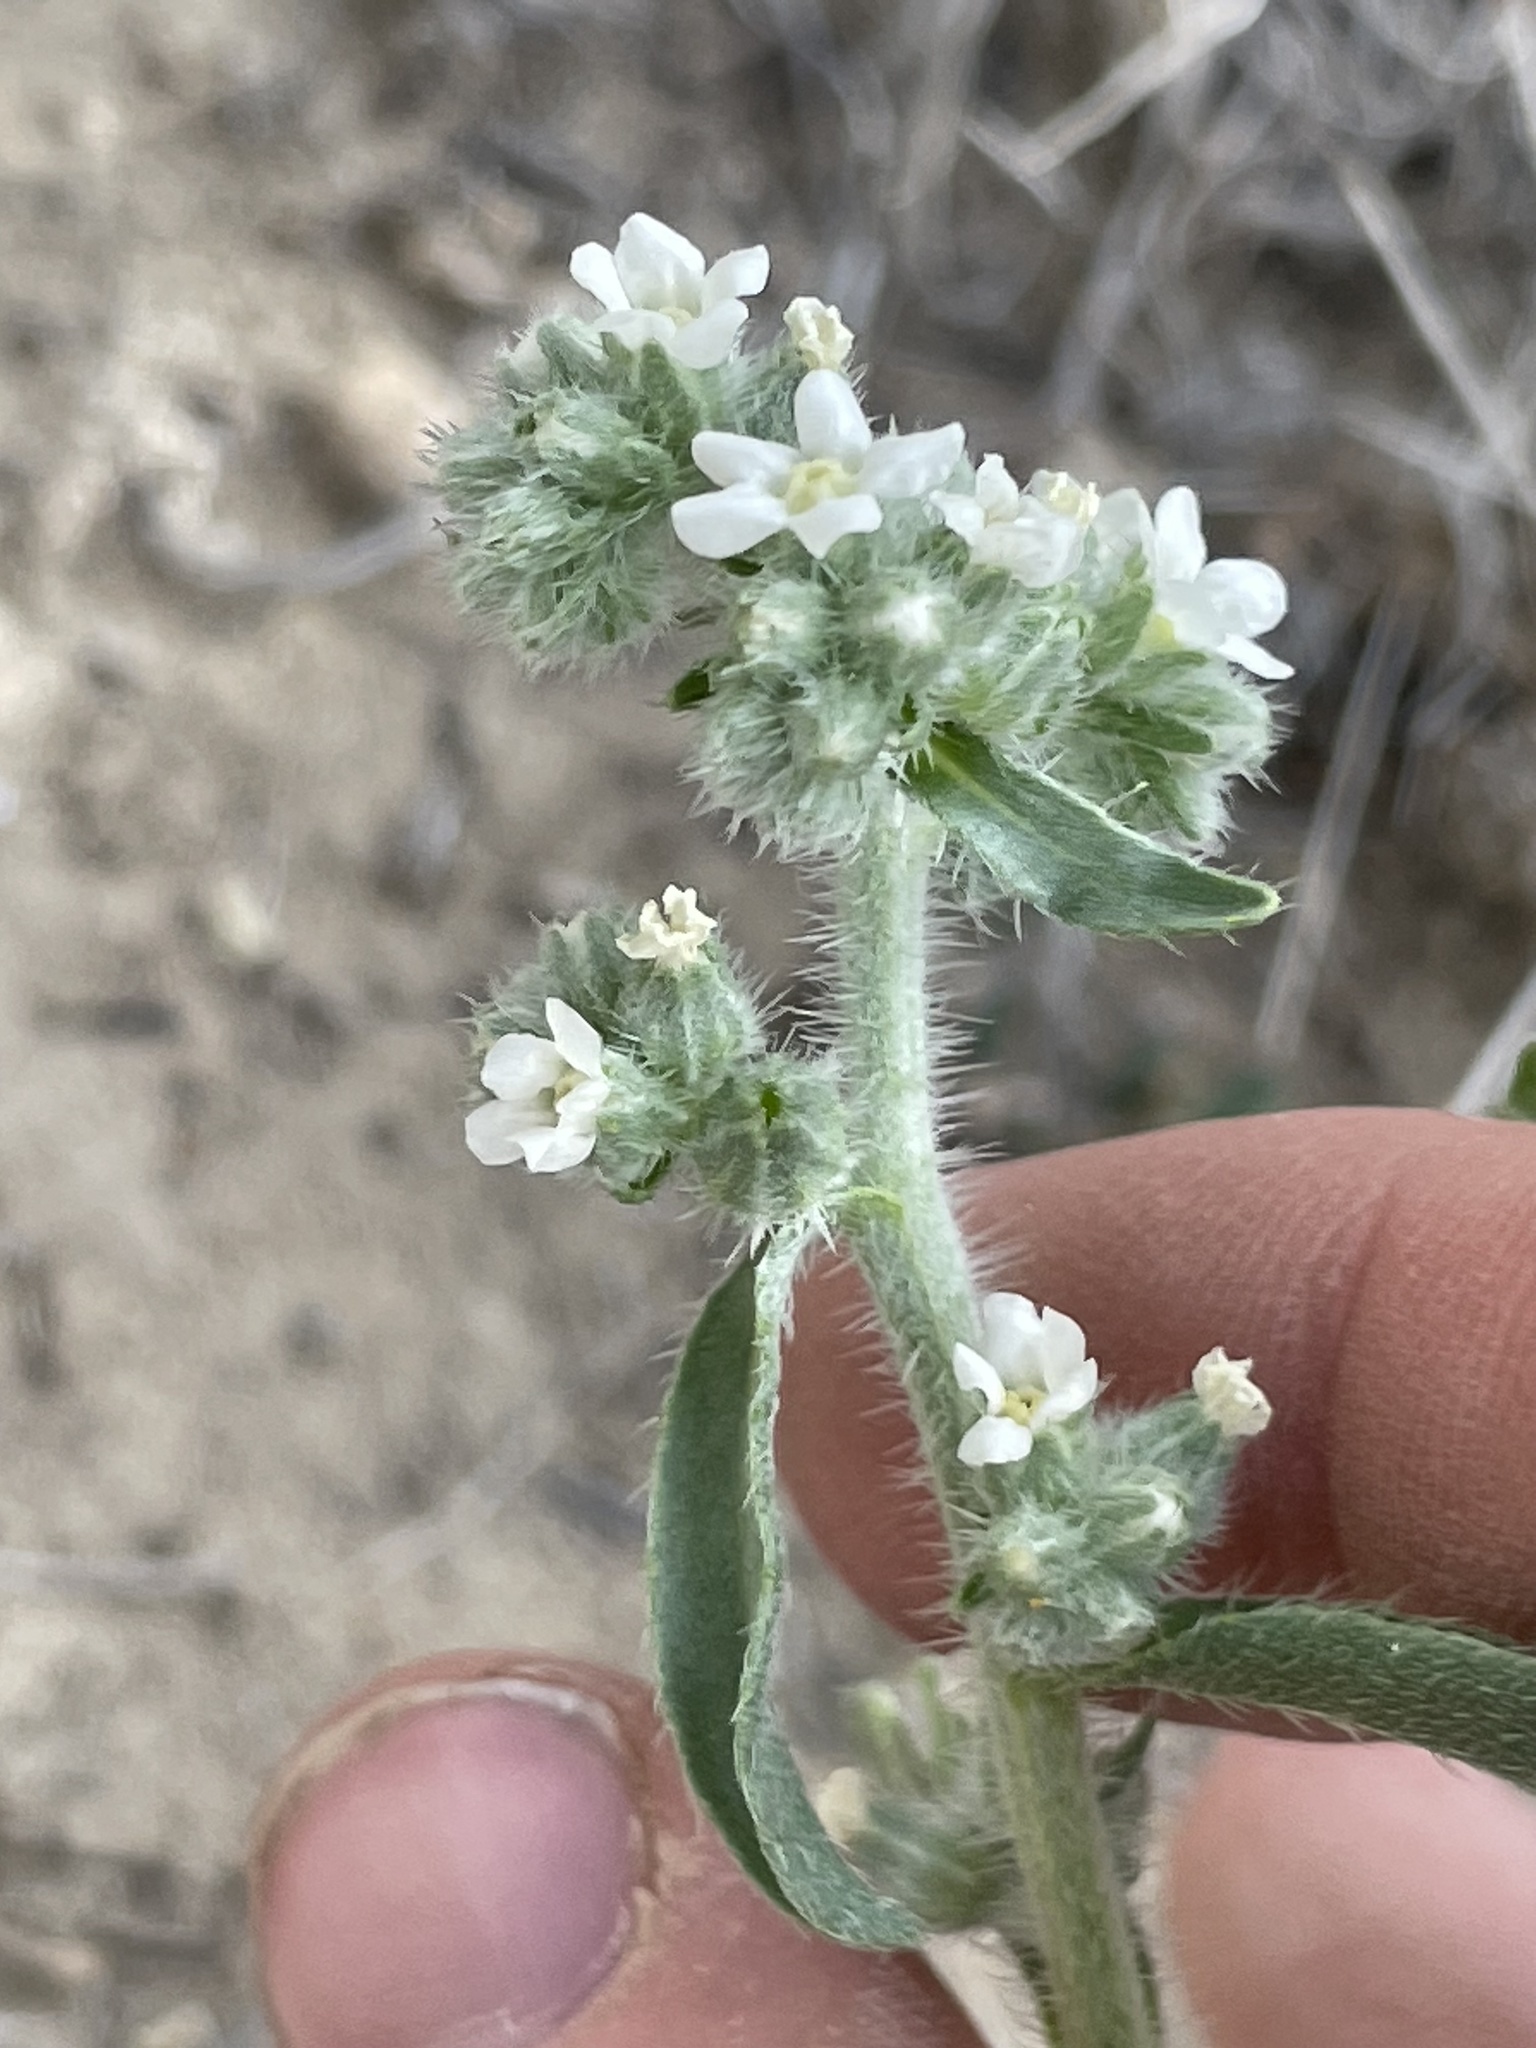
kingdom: Plantae
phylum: Tracheophyta
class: Magnoliopsida
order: Boraginales
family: Boraginaceae
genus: Oreocarya
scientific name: Oreocarya suffruticosa
